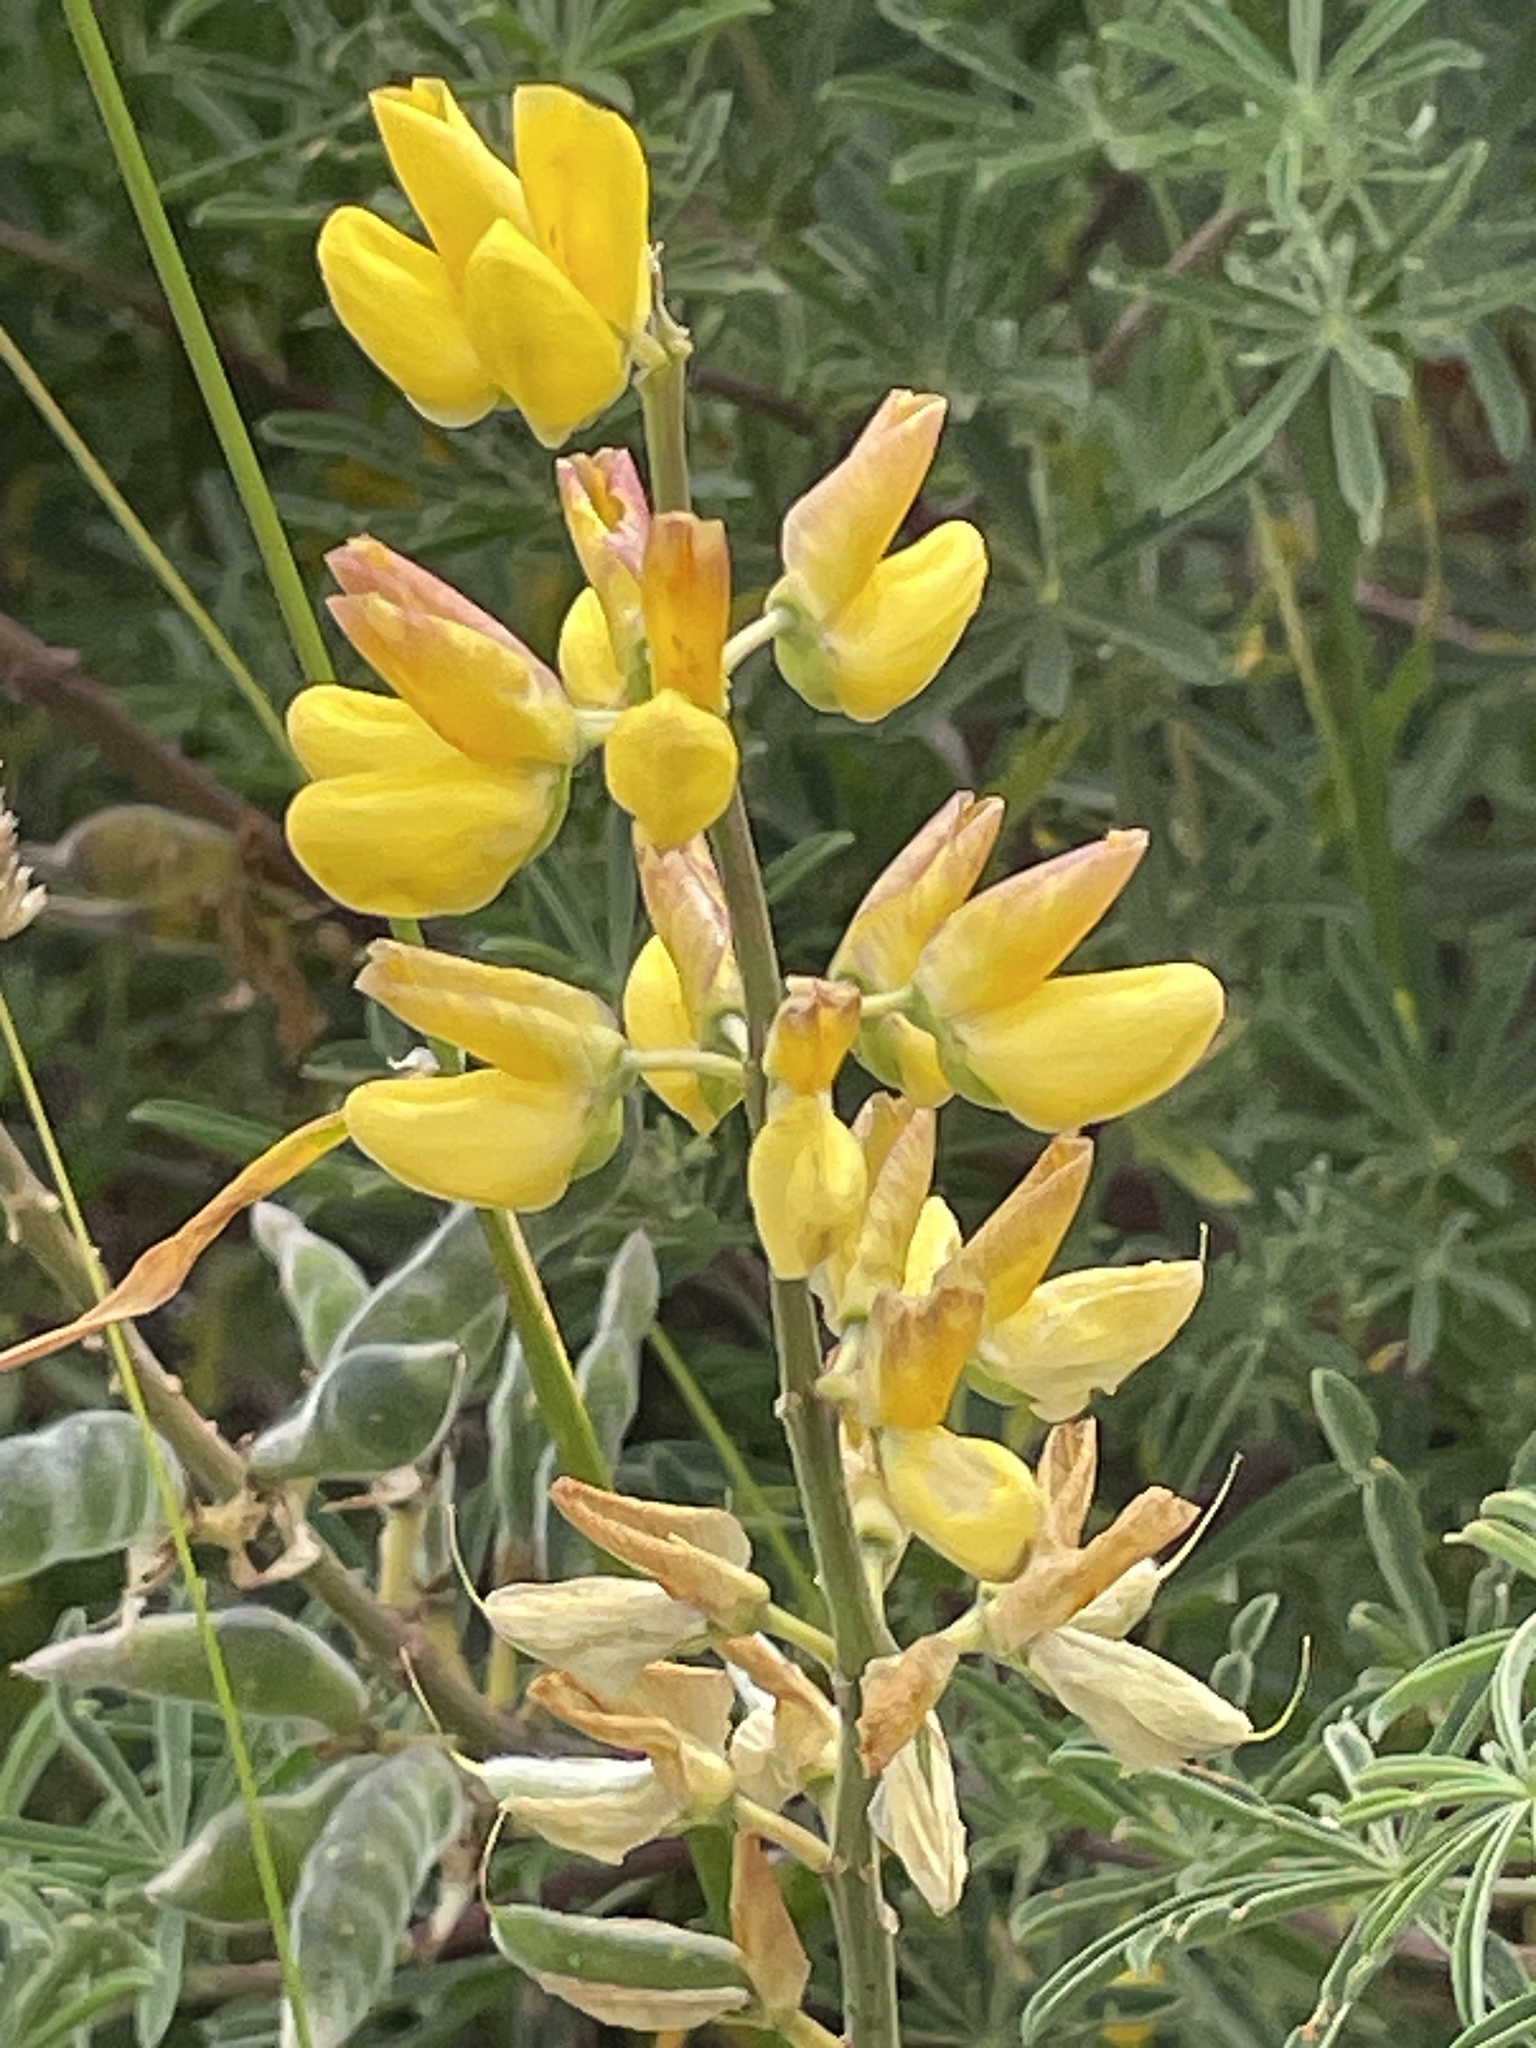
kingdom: Plantae
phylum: Tracheophyta
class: Magnoliopsida
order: Fabales
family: Fabaceae
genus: Lupinus
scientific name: Lupinus arboreus
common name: Yellow bush lupine
